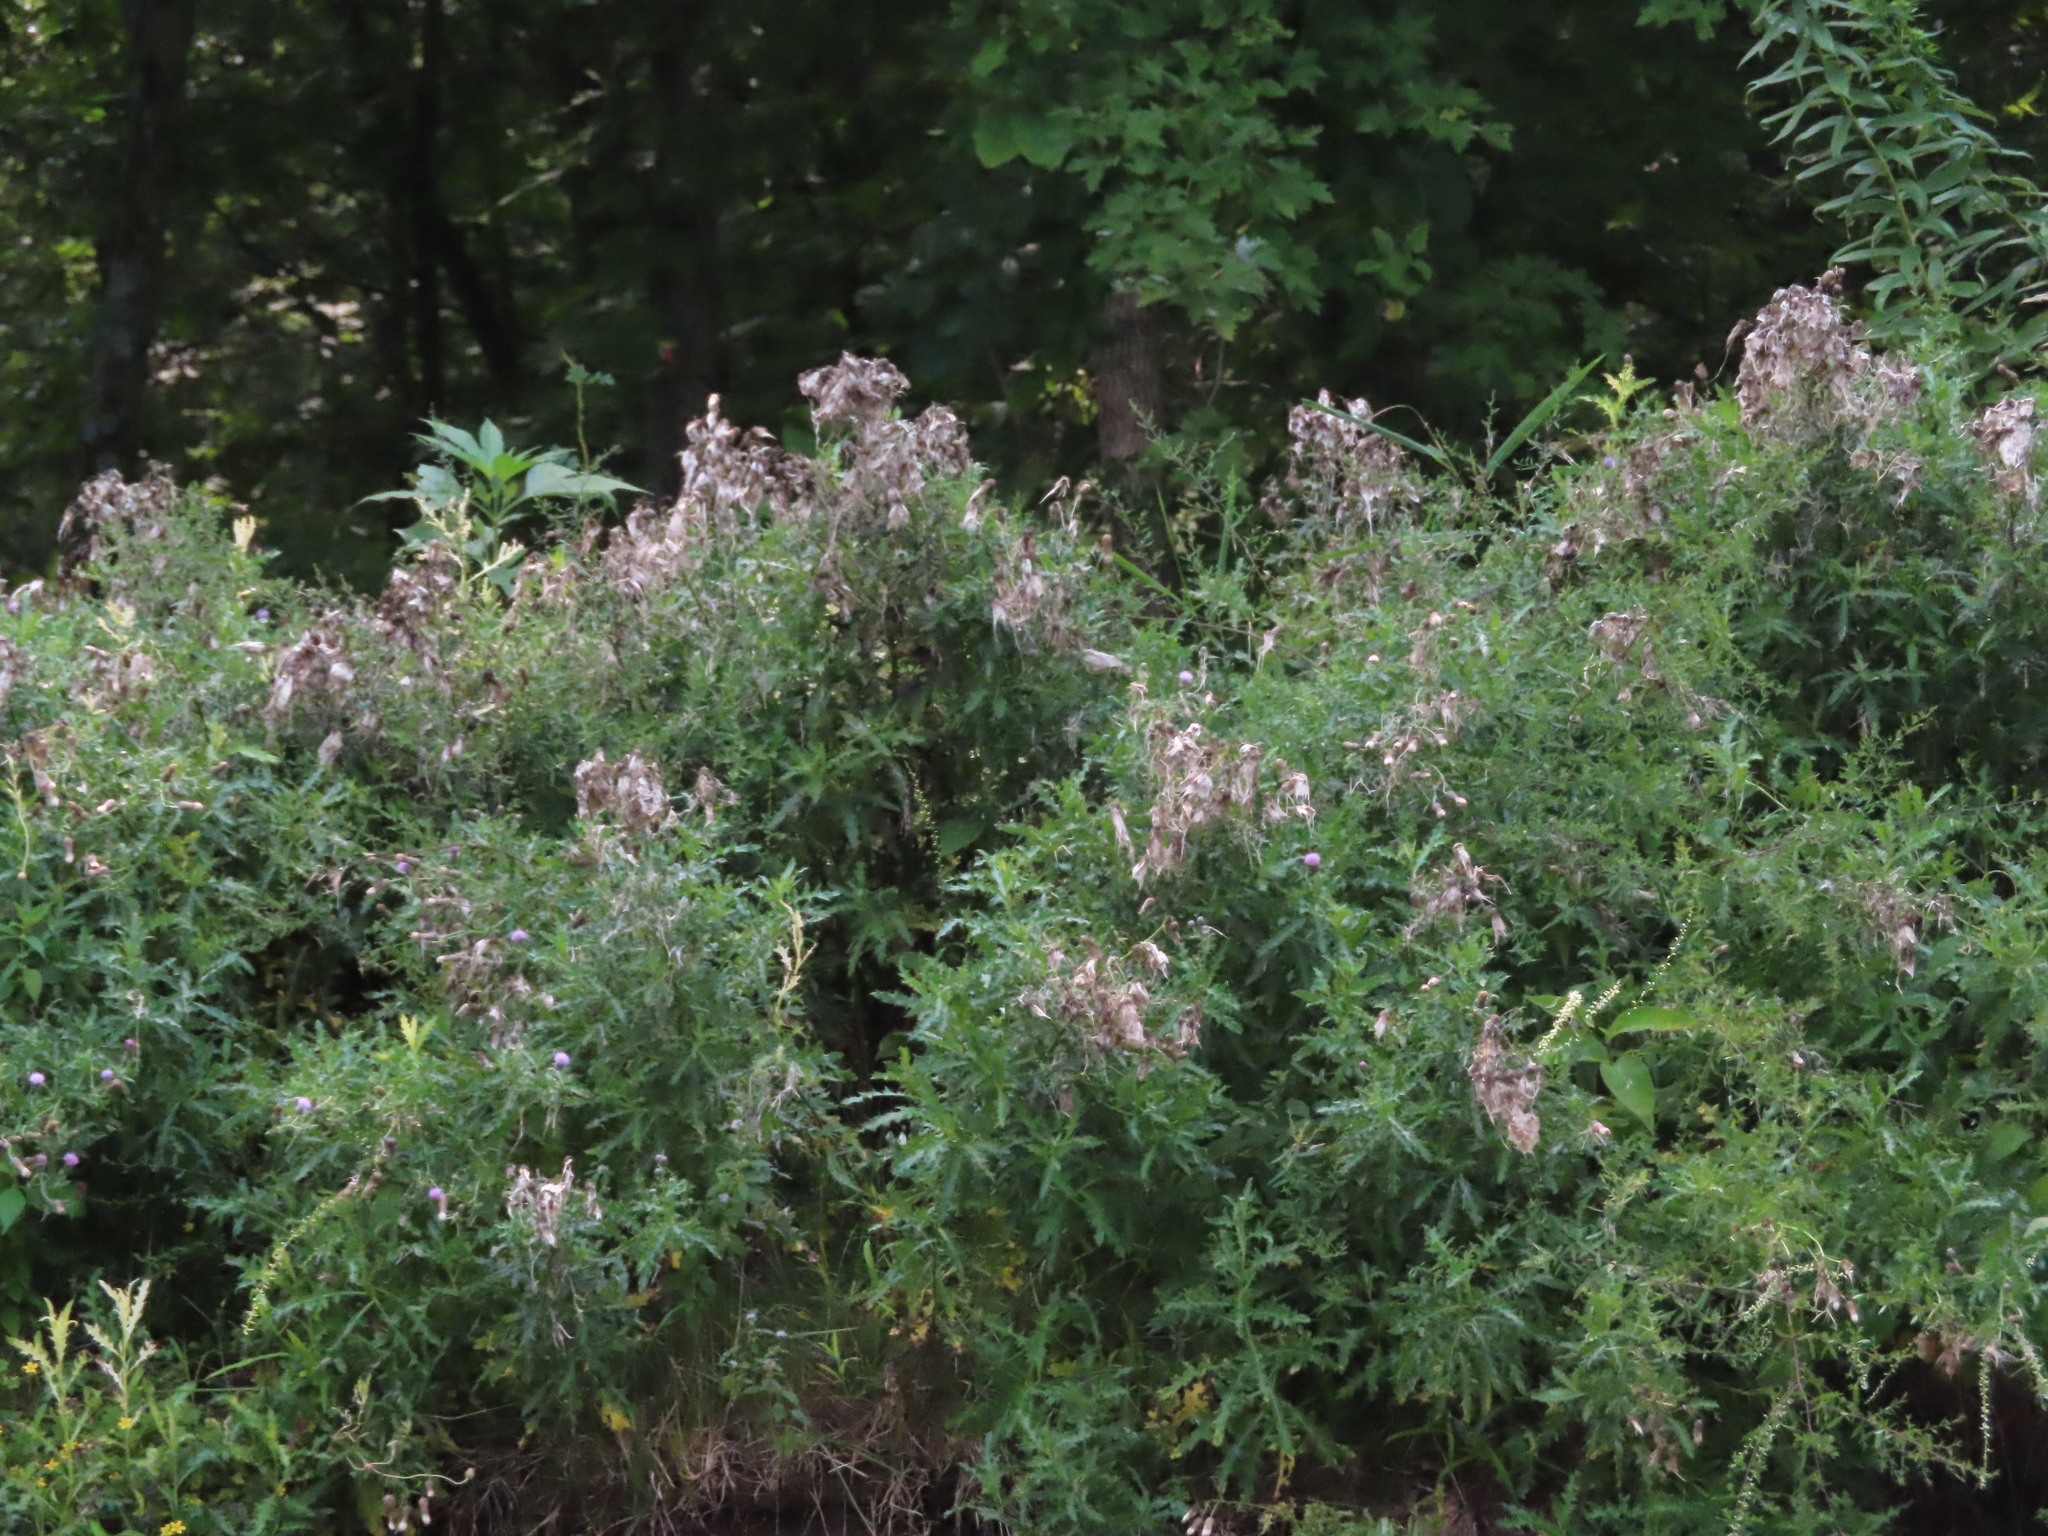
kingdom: Plantae
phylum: Tracheophyta
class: Magnoliopsida
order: Asterales
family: Asteraceae
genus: Cirsium
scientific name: Cirsium arvense
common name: Creeping thistle
